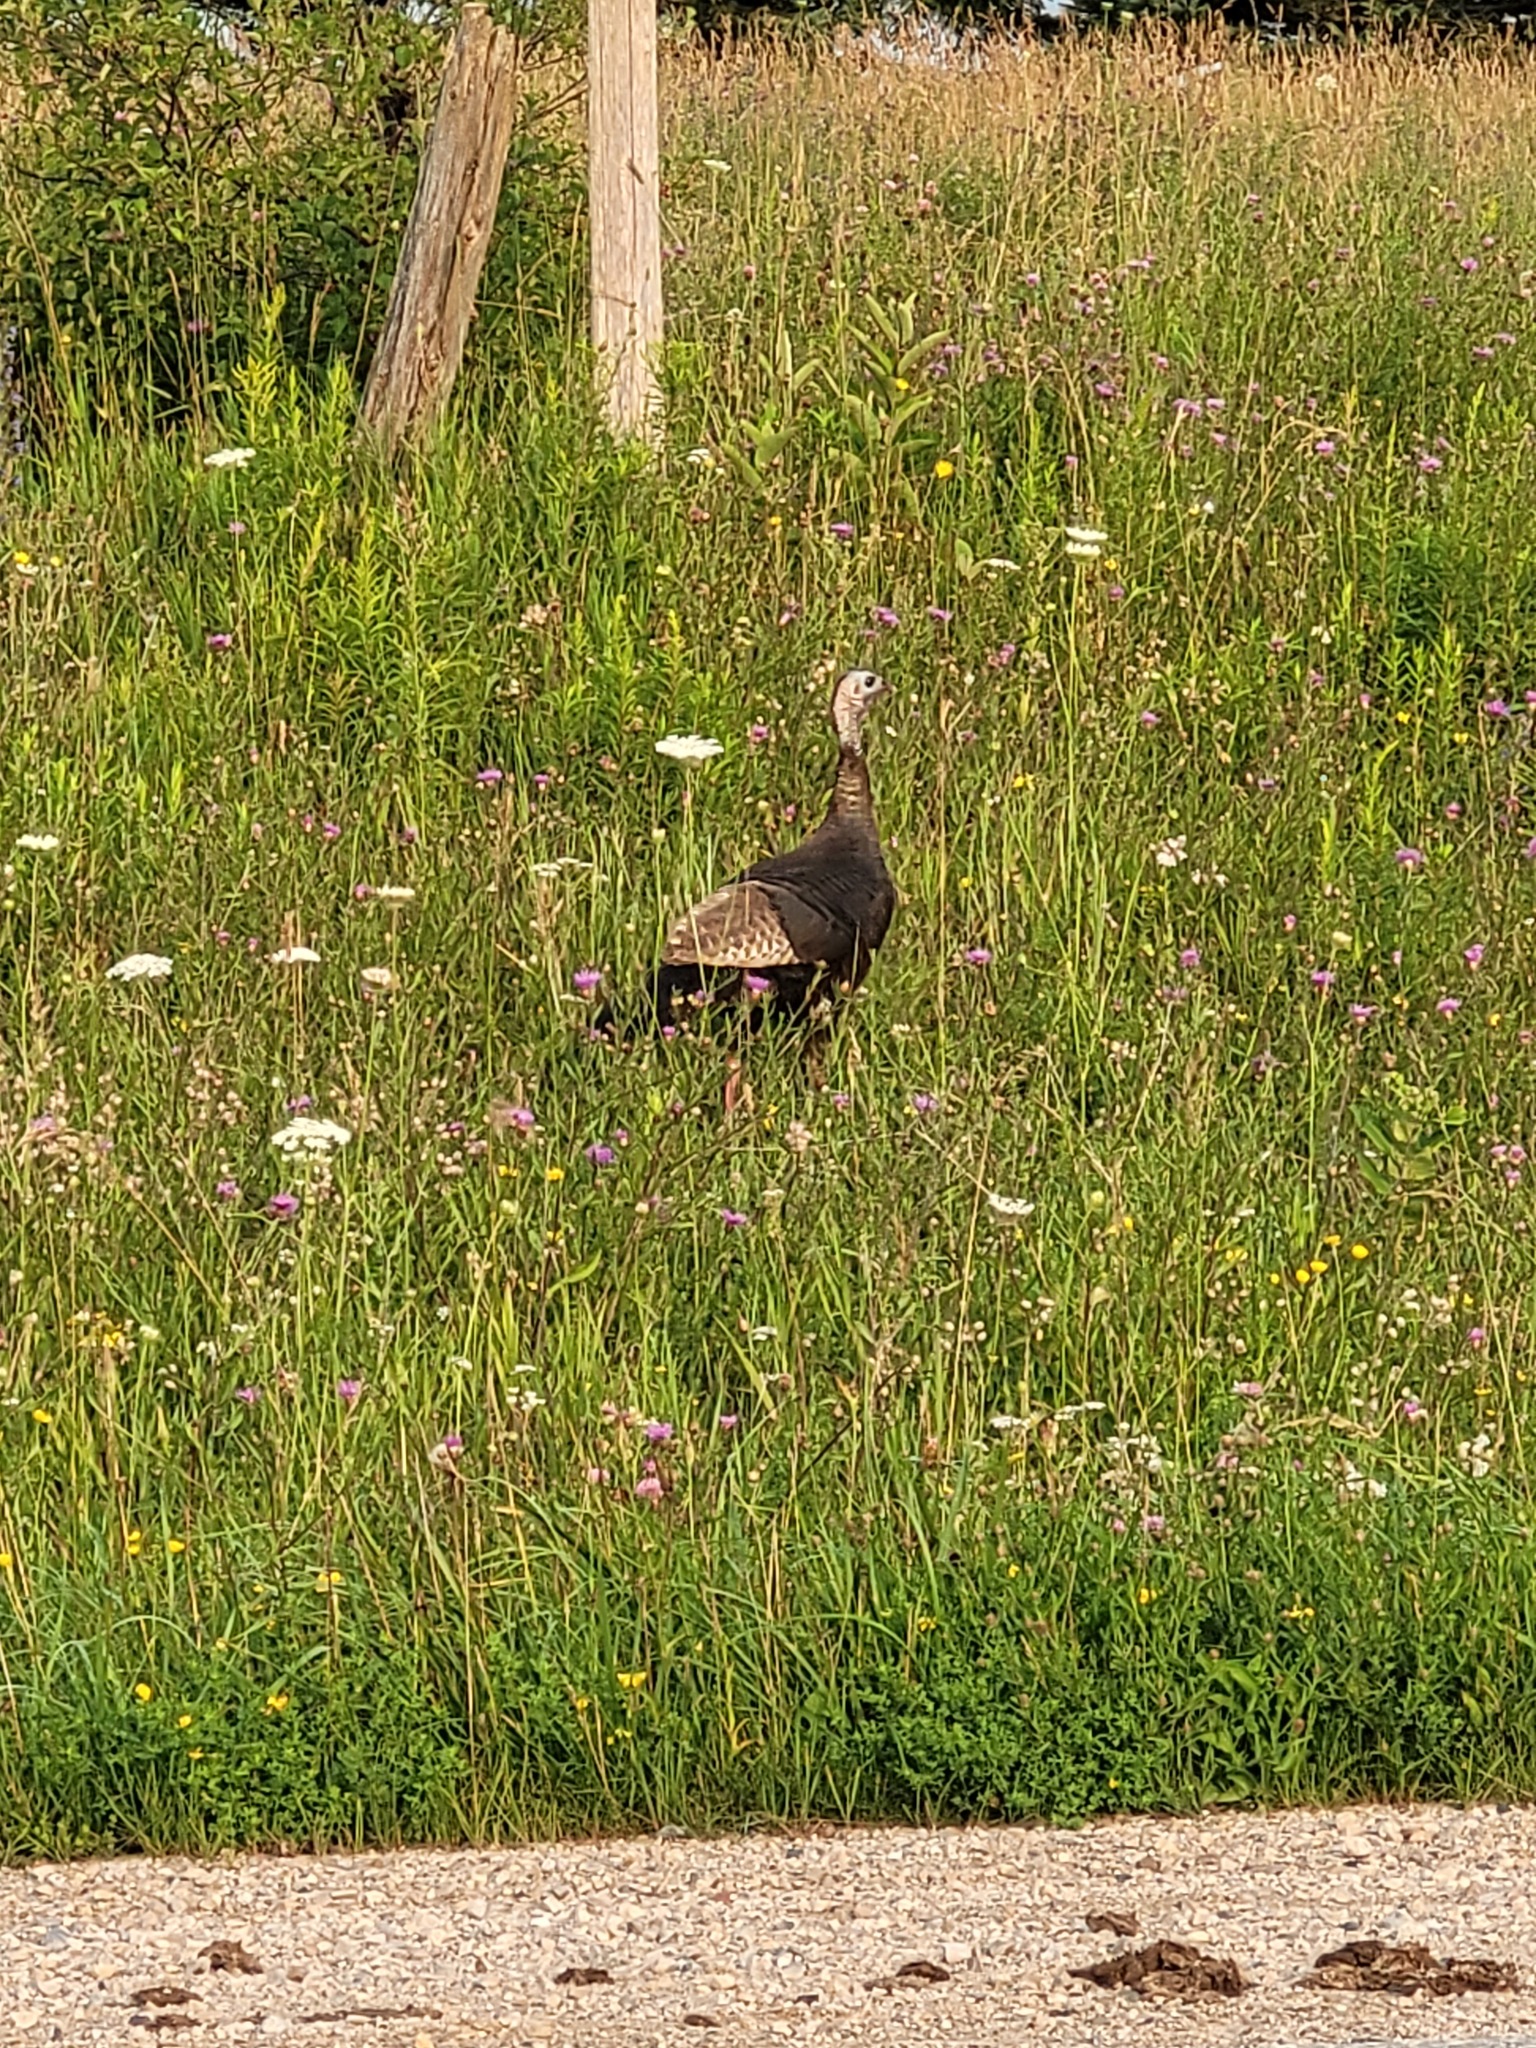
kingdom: Animalia
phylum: Chordata
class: Aves
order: Galliformes
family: Phasianidae
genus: Meleagris
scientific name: Meleagris gallopavo
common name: Wild turkey
